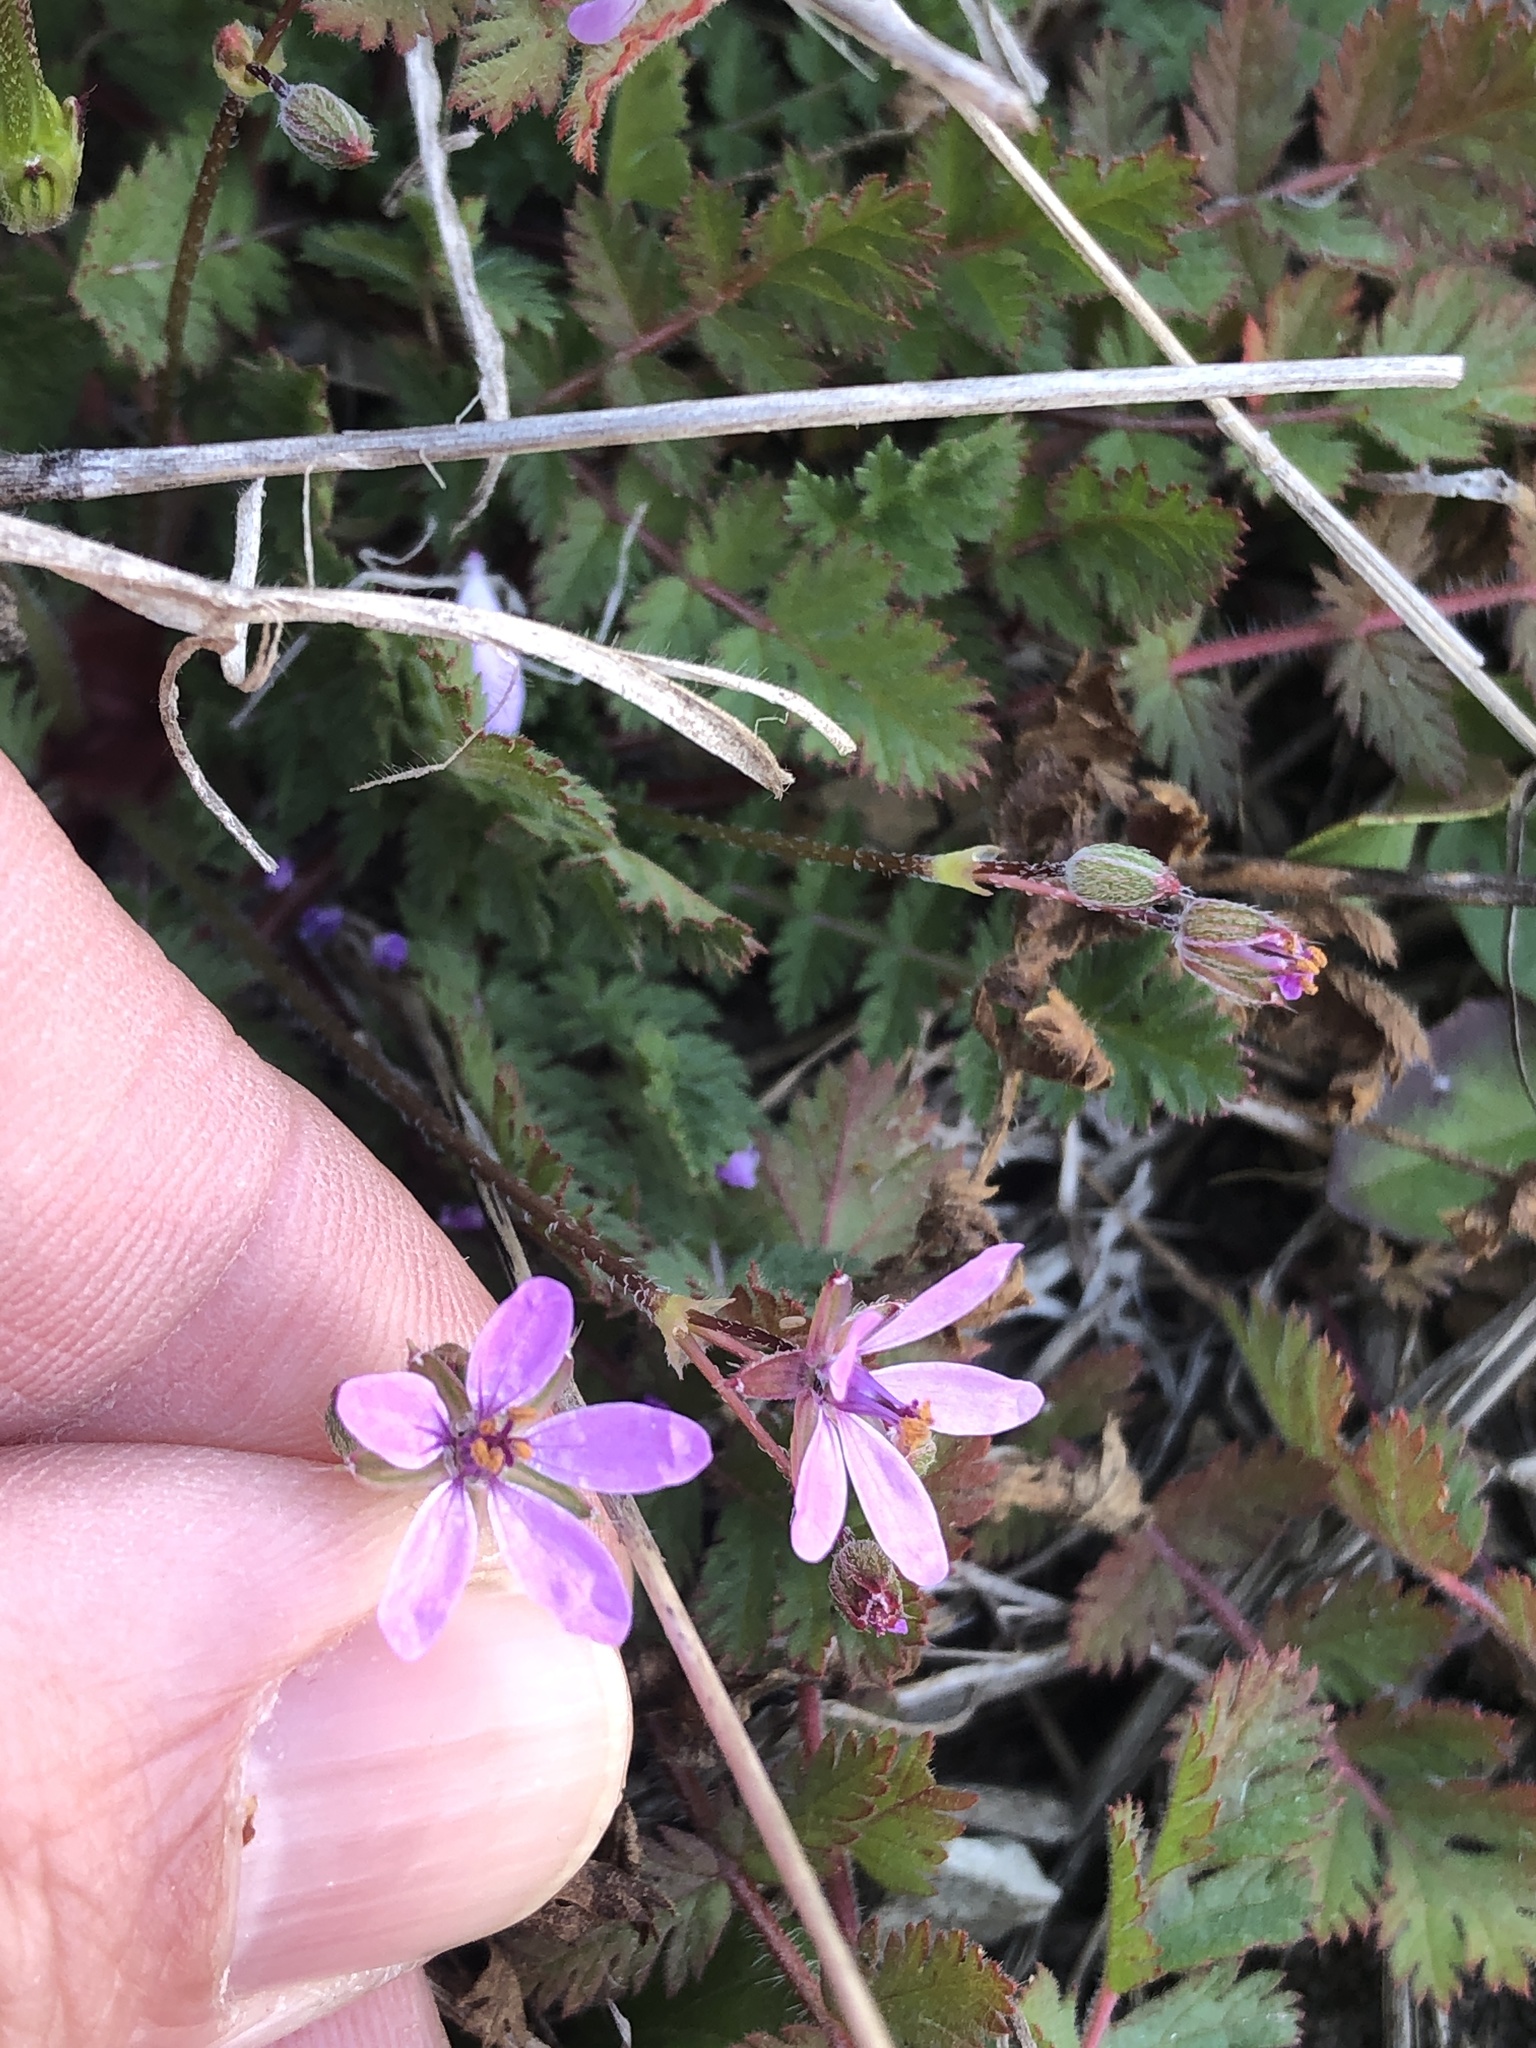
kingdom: Plantae
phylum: Tracheophyta
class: Magnoliopsida
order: Geraniales
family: Geraniaceae
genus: Erodium
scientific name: Erodium cicutarium
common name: Common stork's-bill
